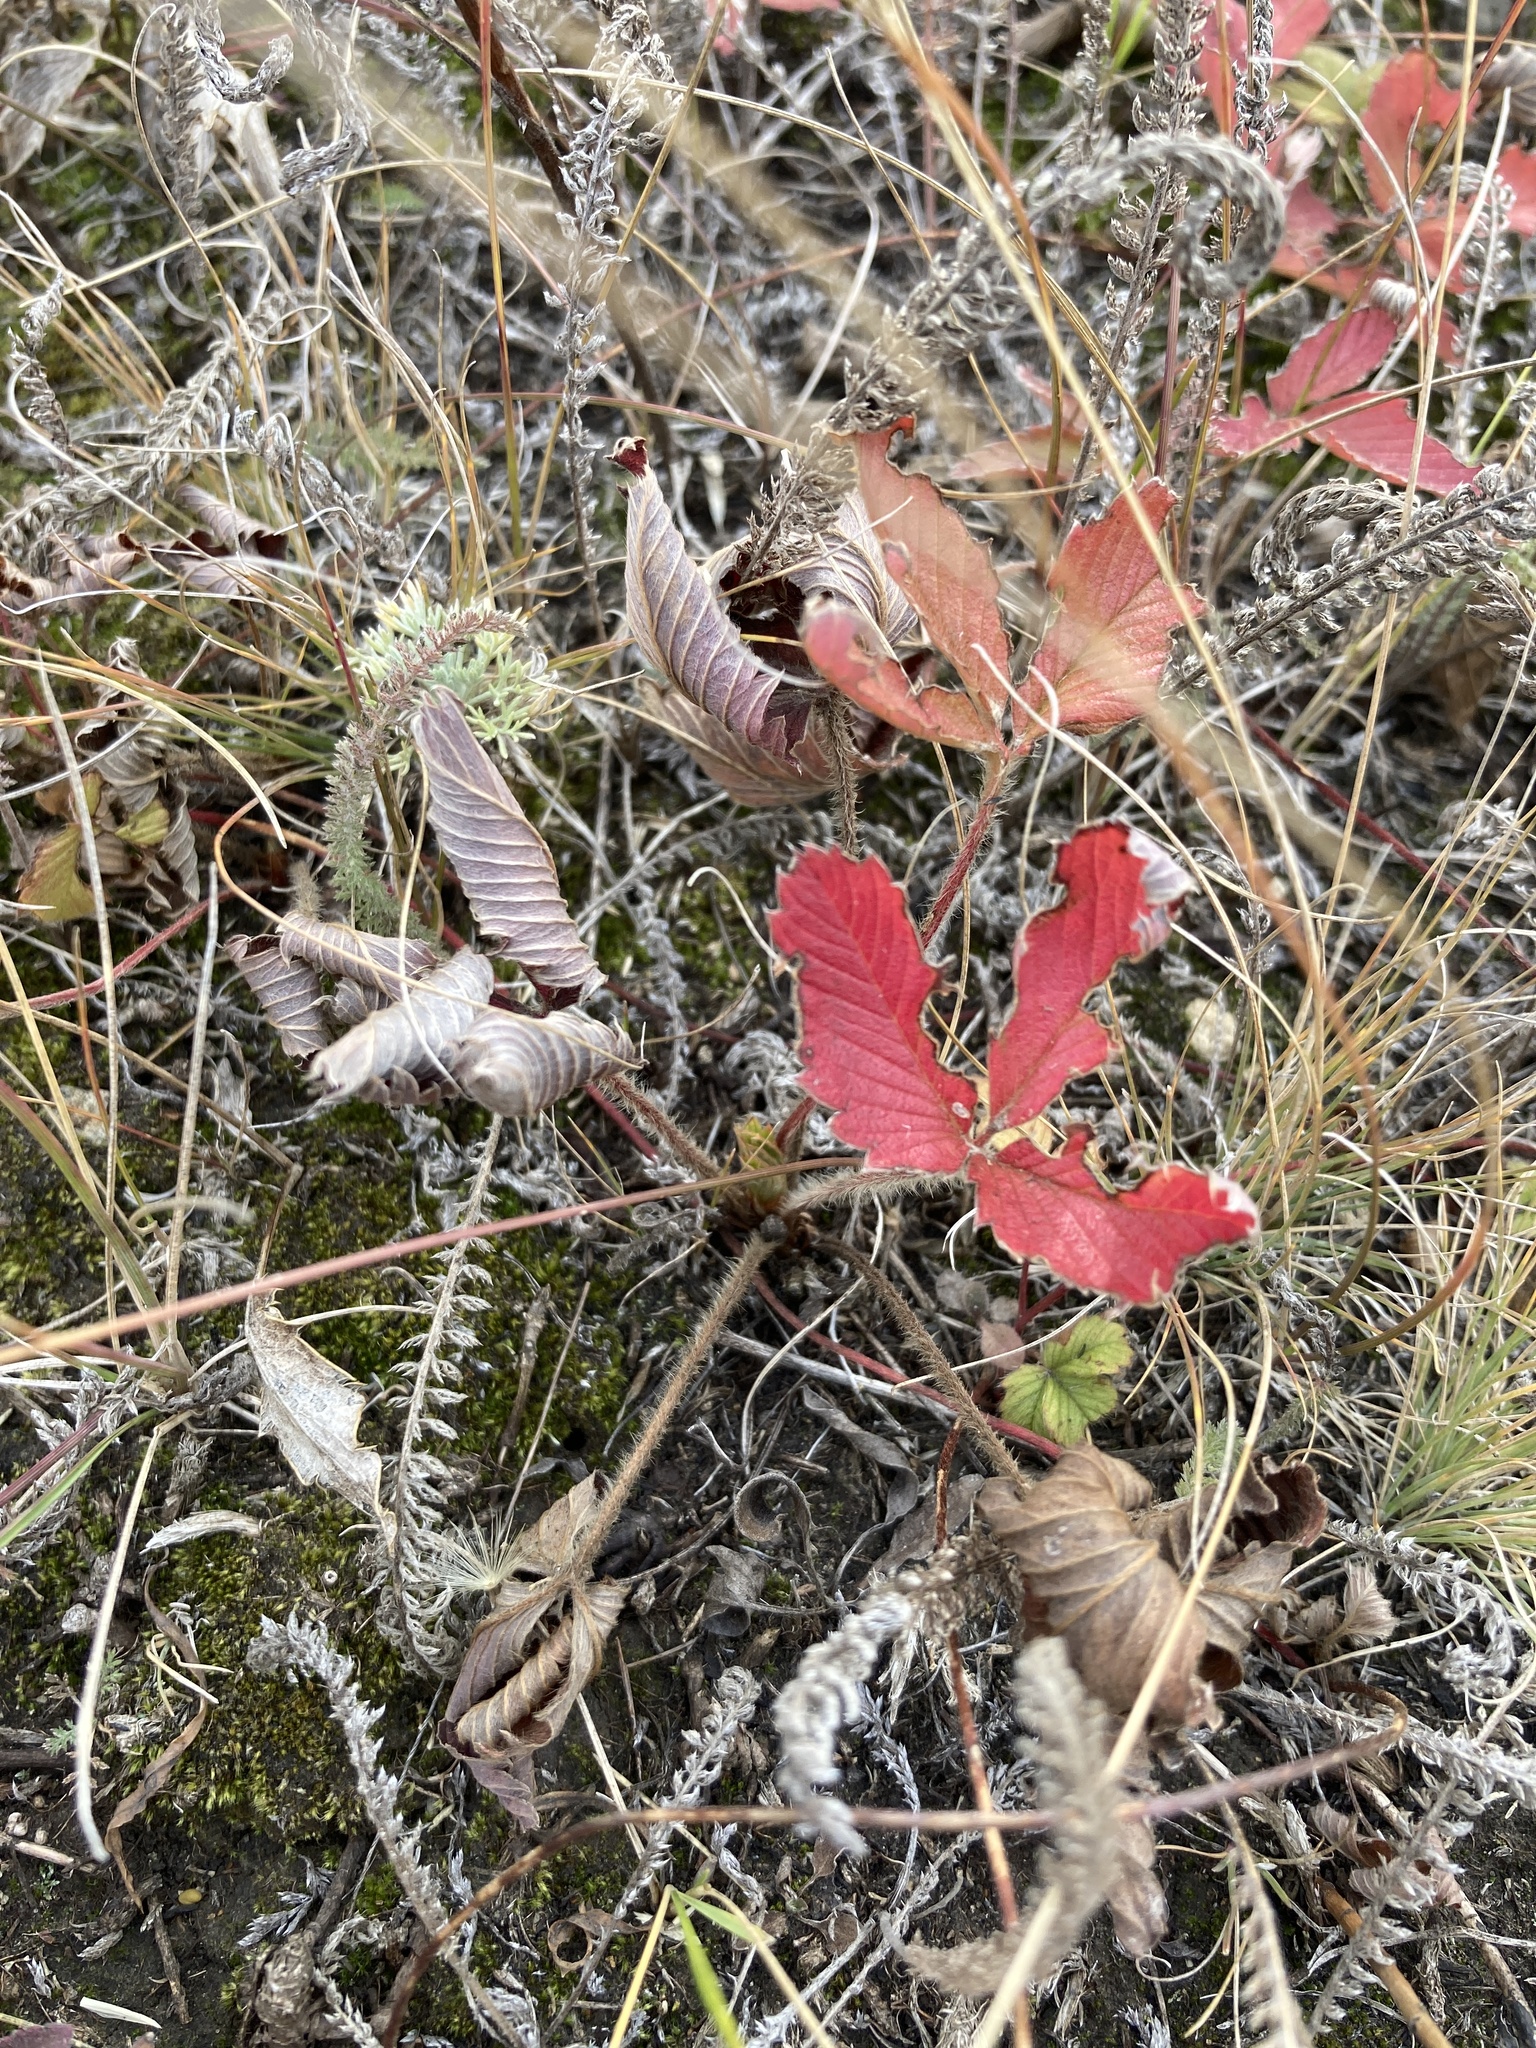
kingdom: Plantae
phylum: Tracheophyta
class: Magnoliopsida
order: Rosales
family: Rosaceae
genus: Fragaria
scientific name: Fragaria viridis
